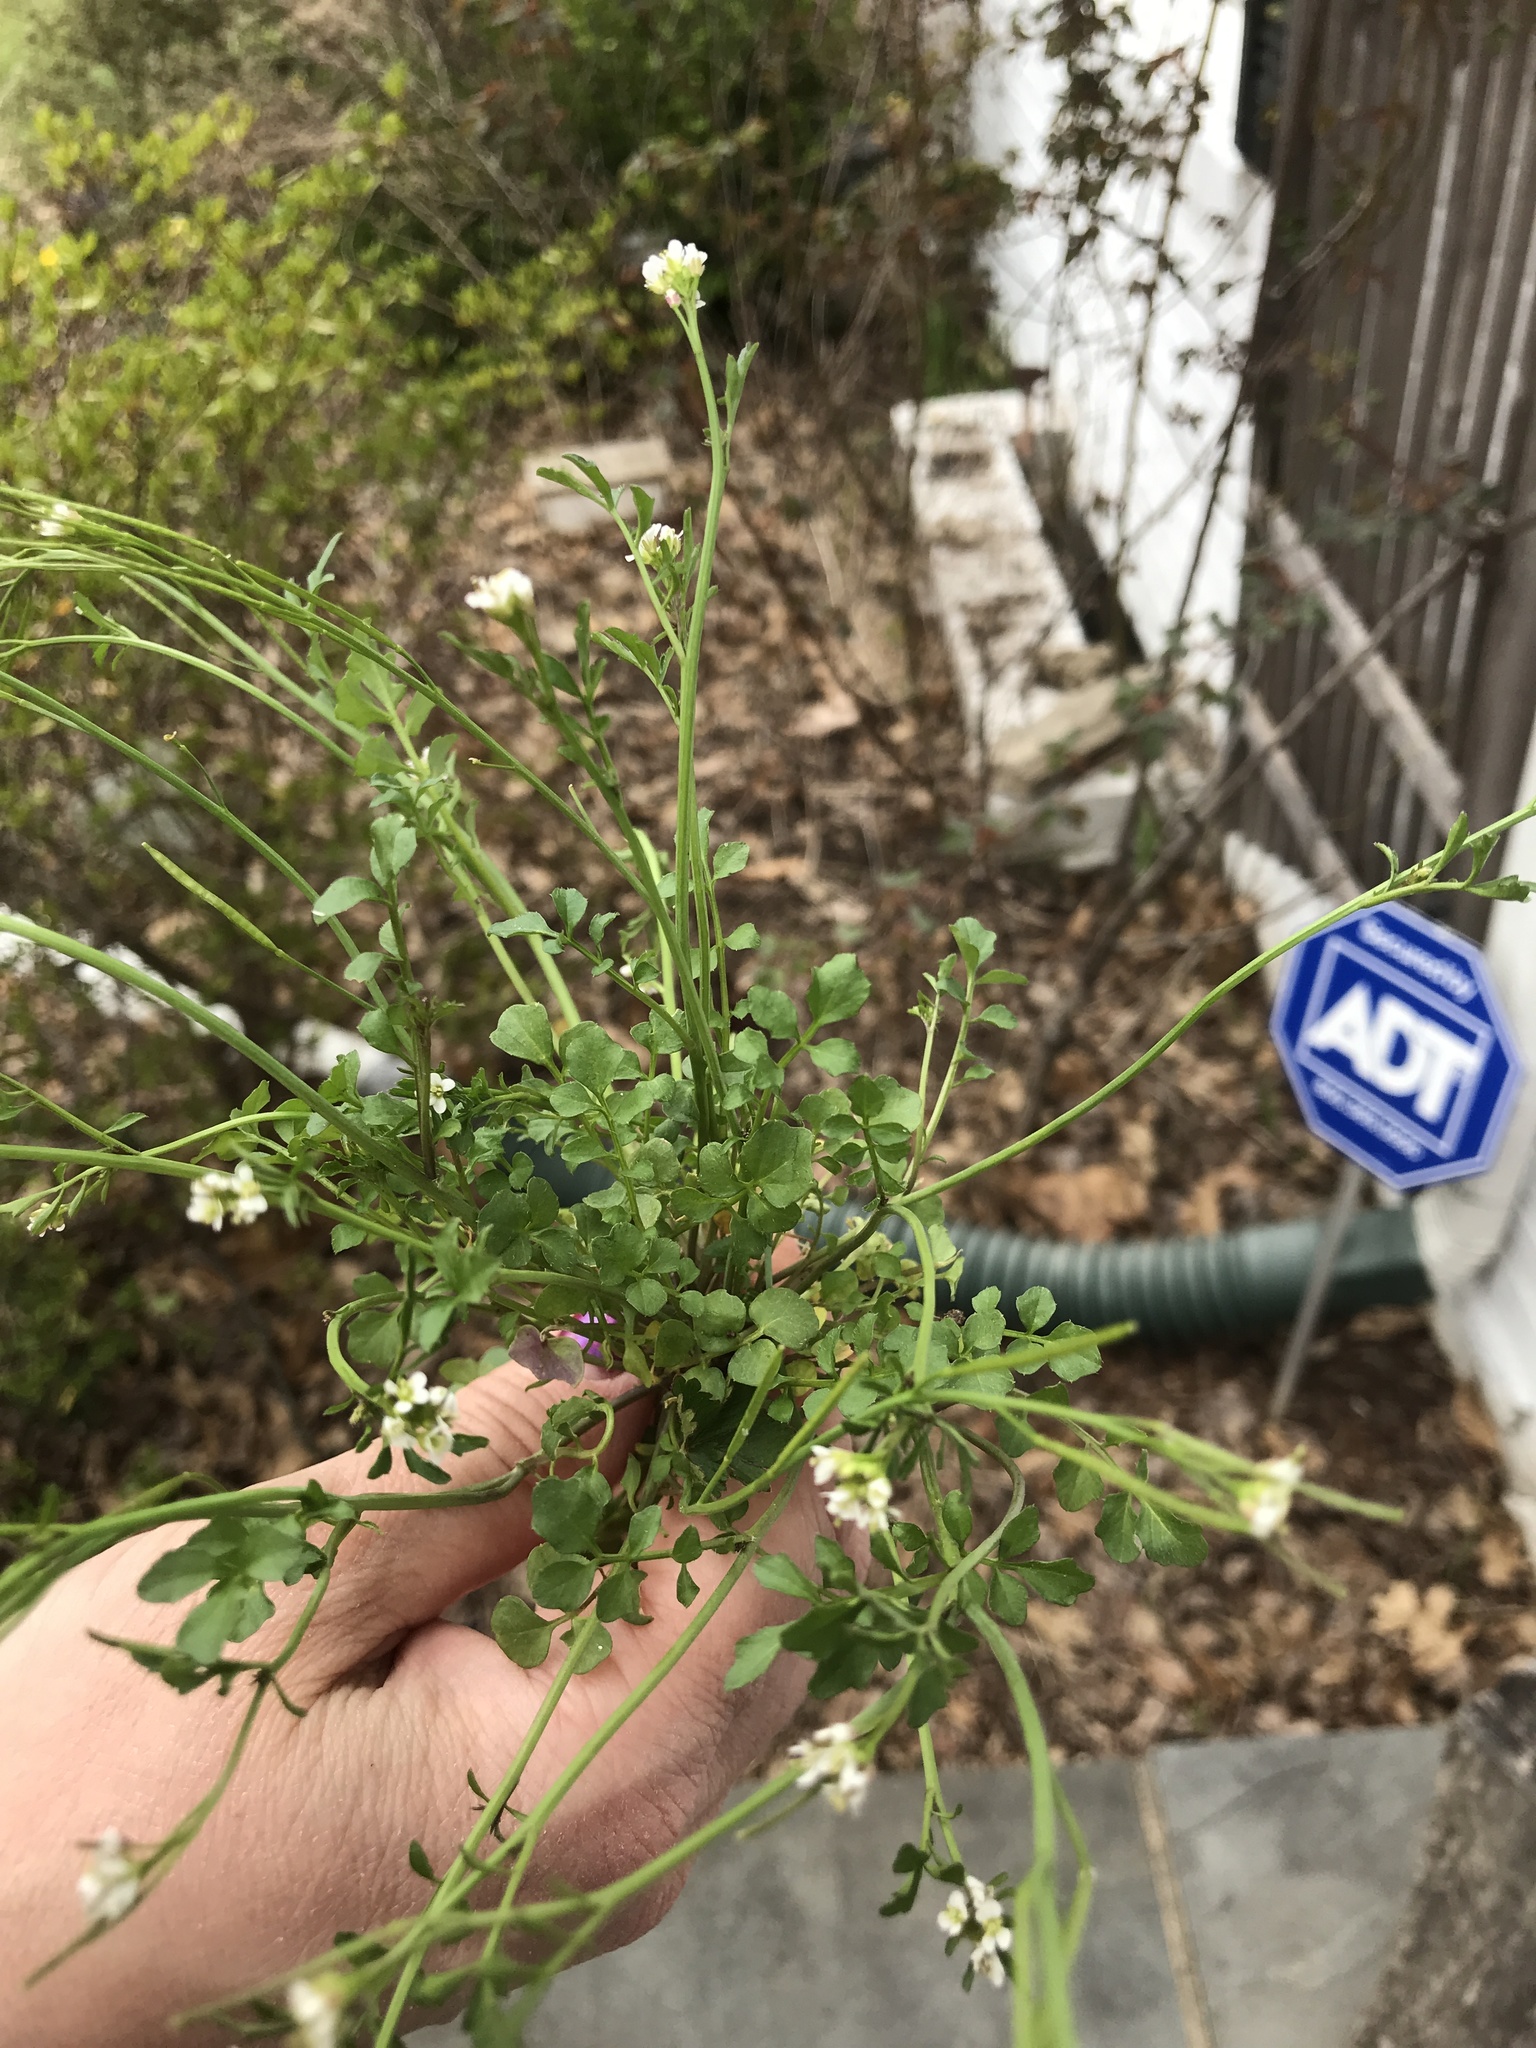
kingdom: Plantae
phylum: Tracheophyta
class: Magnoliopsida
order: Brassicales
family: Brassicaceae
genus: Cardamine
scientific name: Cardamine hirsuta
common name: Hairy bittercress
